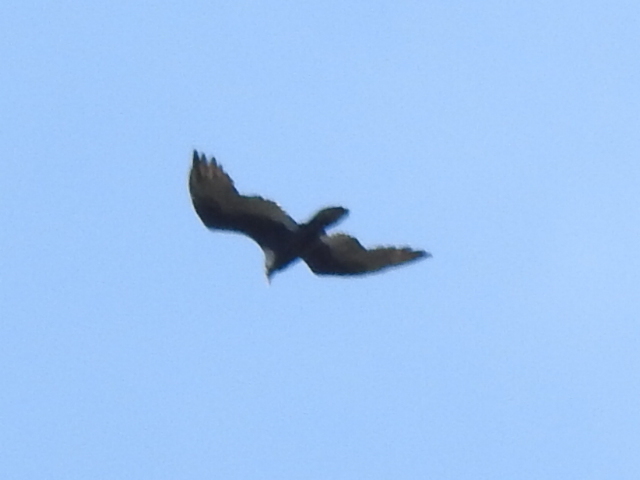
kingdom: Animalia
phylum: Chordata
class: Aves
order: Accipitriformes
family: Cathartidae
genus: Cathartes
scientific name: Cathartes aura
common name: Turkey vulture
